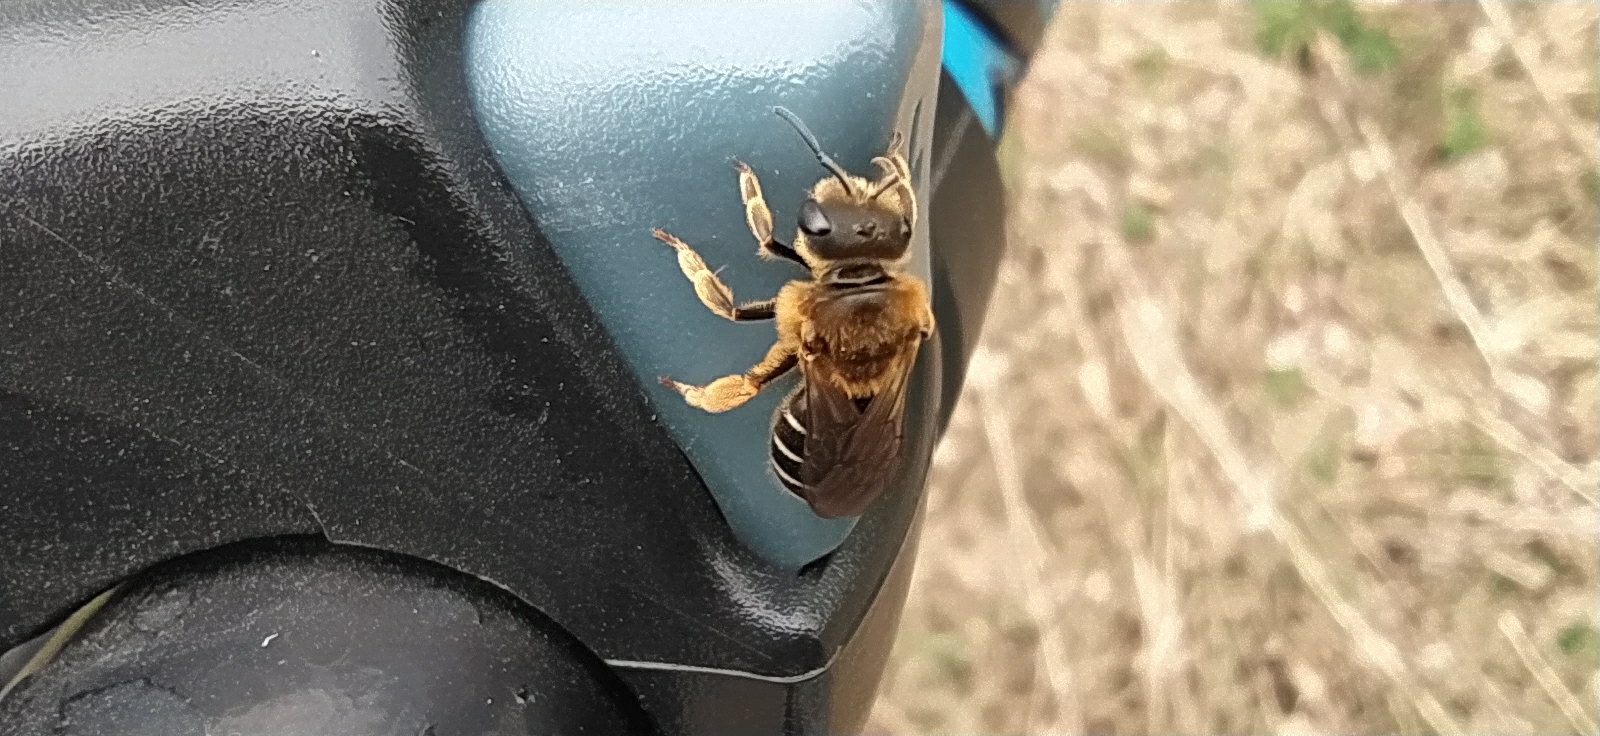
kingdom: Animalia
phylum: Arthropoda
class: Insecta
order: Hymenoptera
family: Halictidae
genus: Halictus
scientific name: Halictus rubicundus
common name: Orange-legged furrow bee
